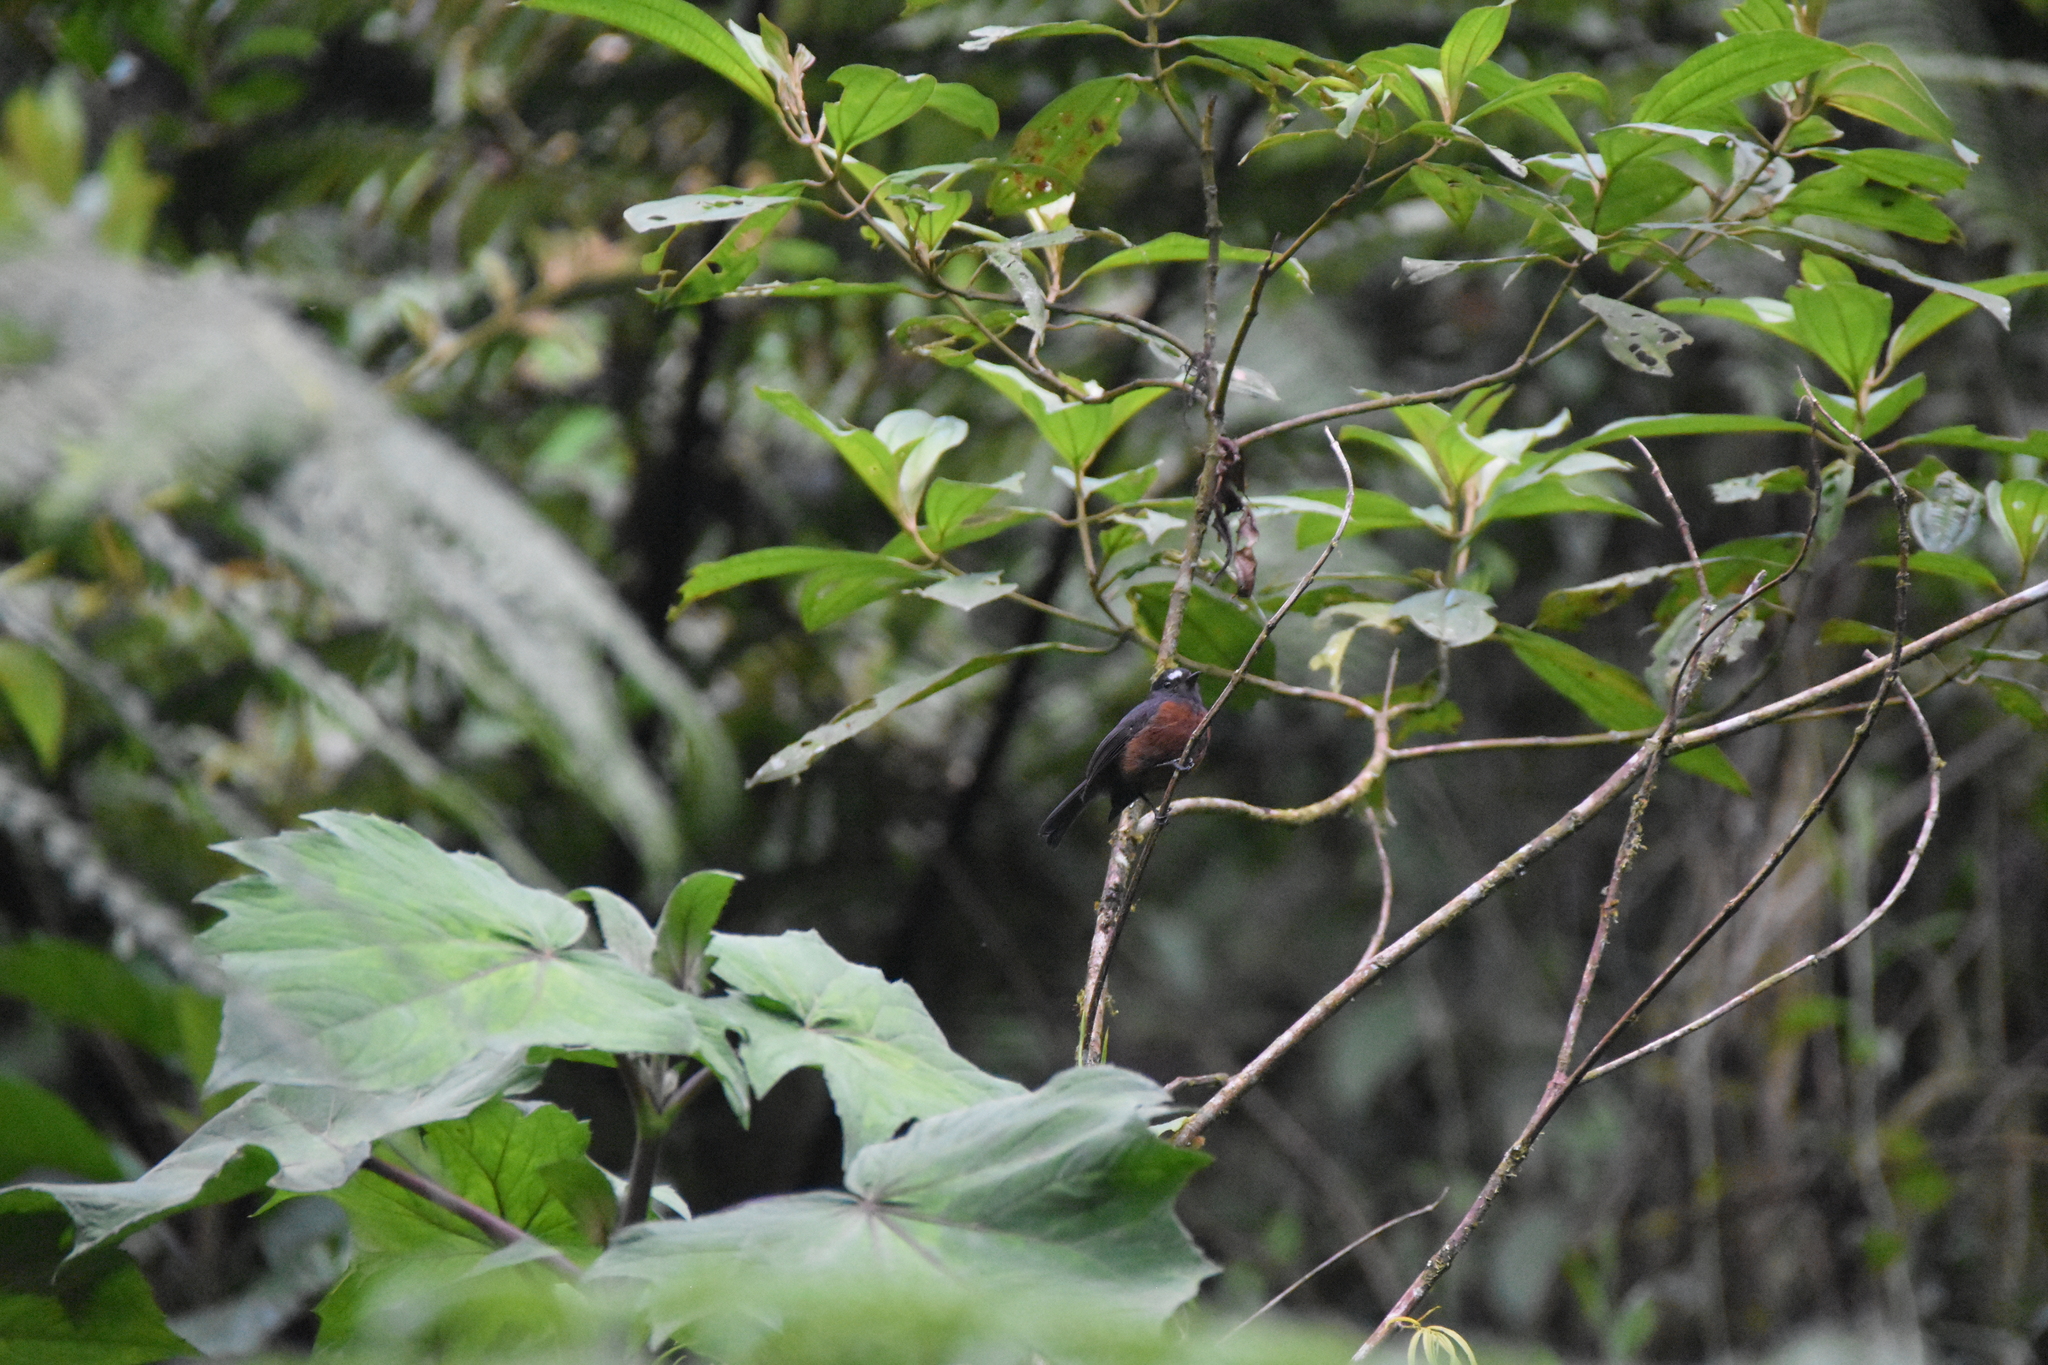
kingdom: Animalia
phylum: Chordata
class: Aves
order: Passeriformes
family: Tyrannidae
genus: Ochthoeca
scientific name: Ochthoeca cinnamomeiventris
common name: Slaty-backed chat-tyrant
